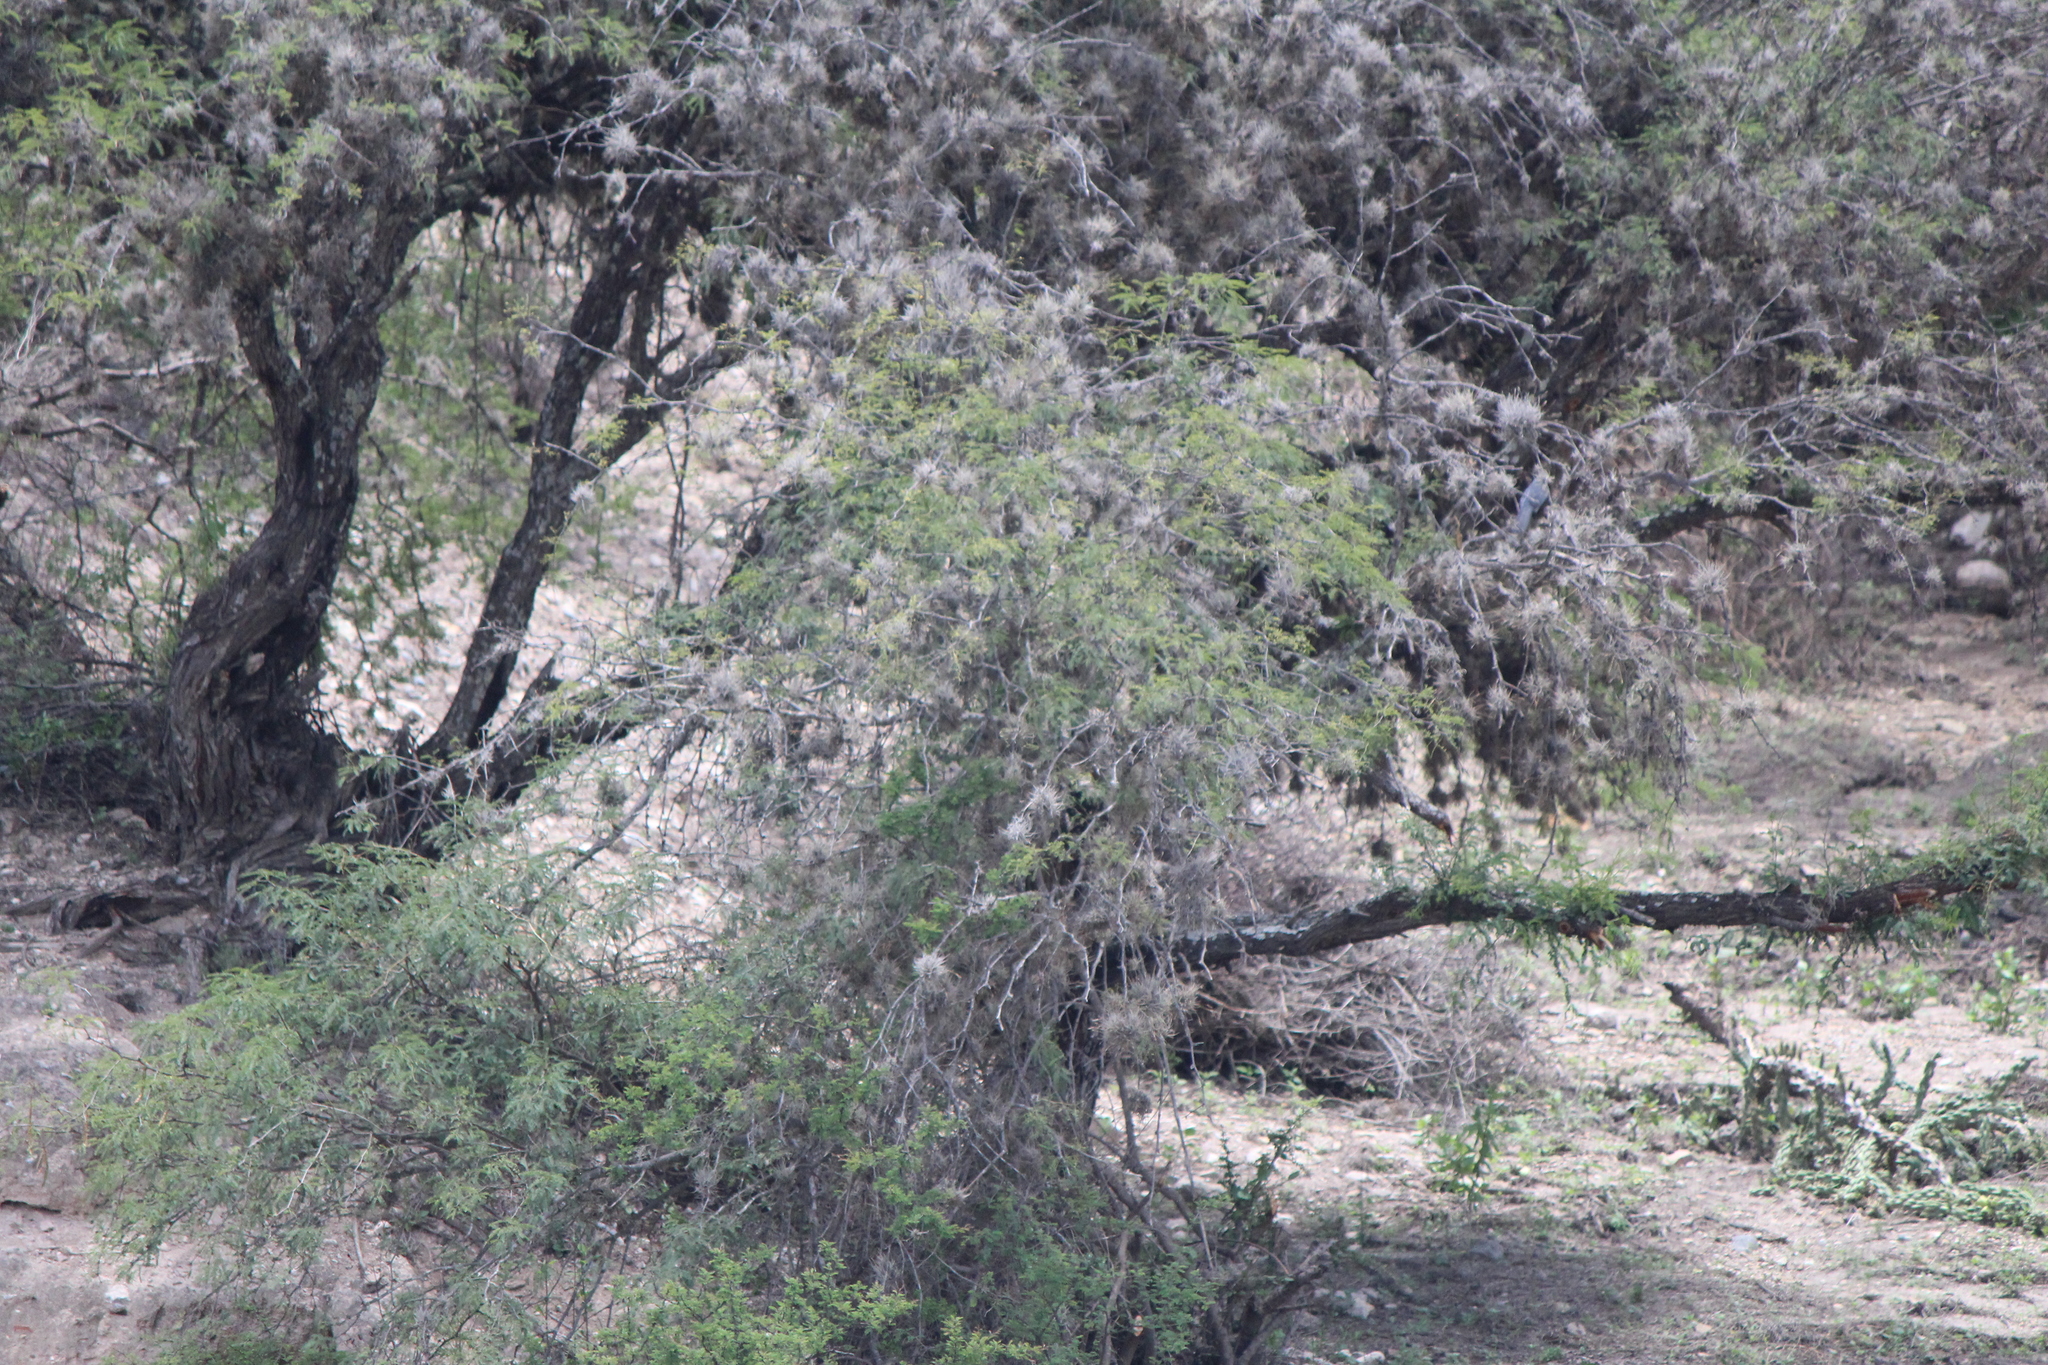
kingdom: Animalia
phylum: Chordata
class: Aves
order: Passeriformes
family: Mimidae
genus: Melanotis
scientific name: Melanotis caerulescens
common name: Blue mockingbird
